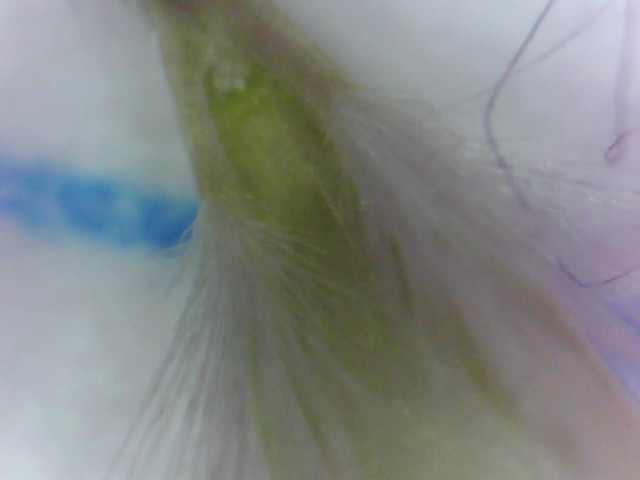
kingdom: Plantae
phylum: Tracheophyta
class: Liliopsida
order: Poales
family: Poaceae
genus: Rytidosperma
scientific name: Rytidosperma racemosum
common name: Wallaby-grass
